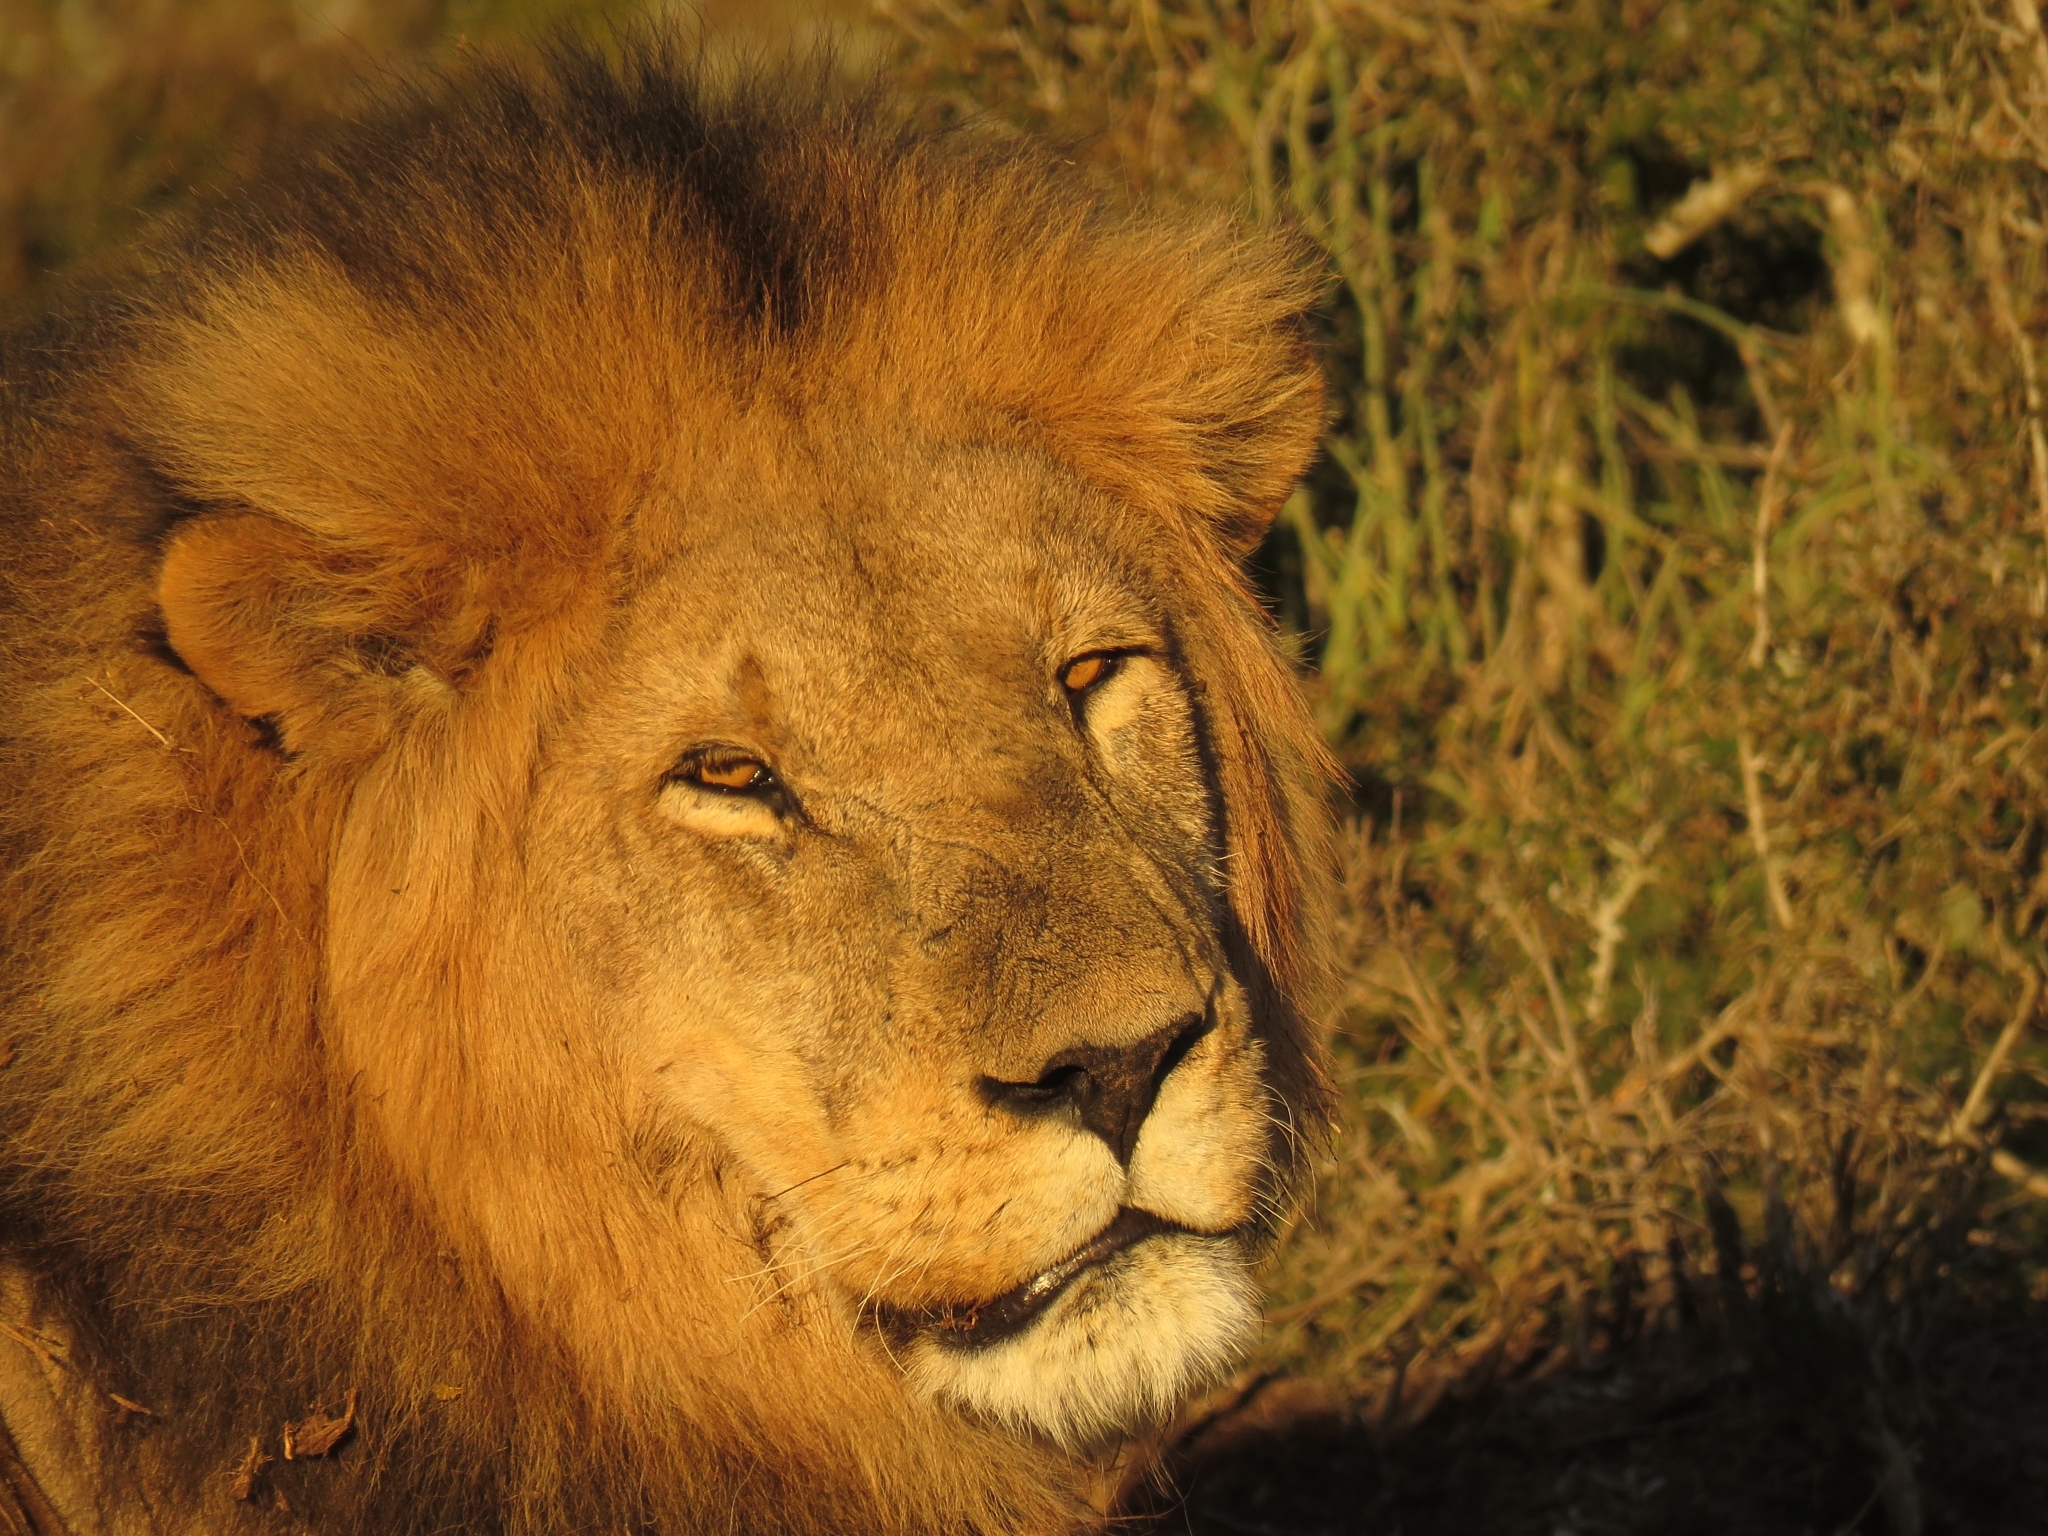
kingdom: Animalia
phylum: Chordata
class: Mammalia
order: Carnivora
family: Felidae
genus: Panthera
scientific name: Panthera leo
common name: Lion
